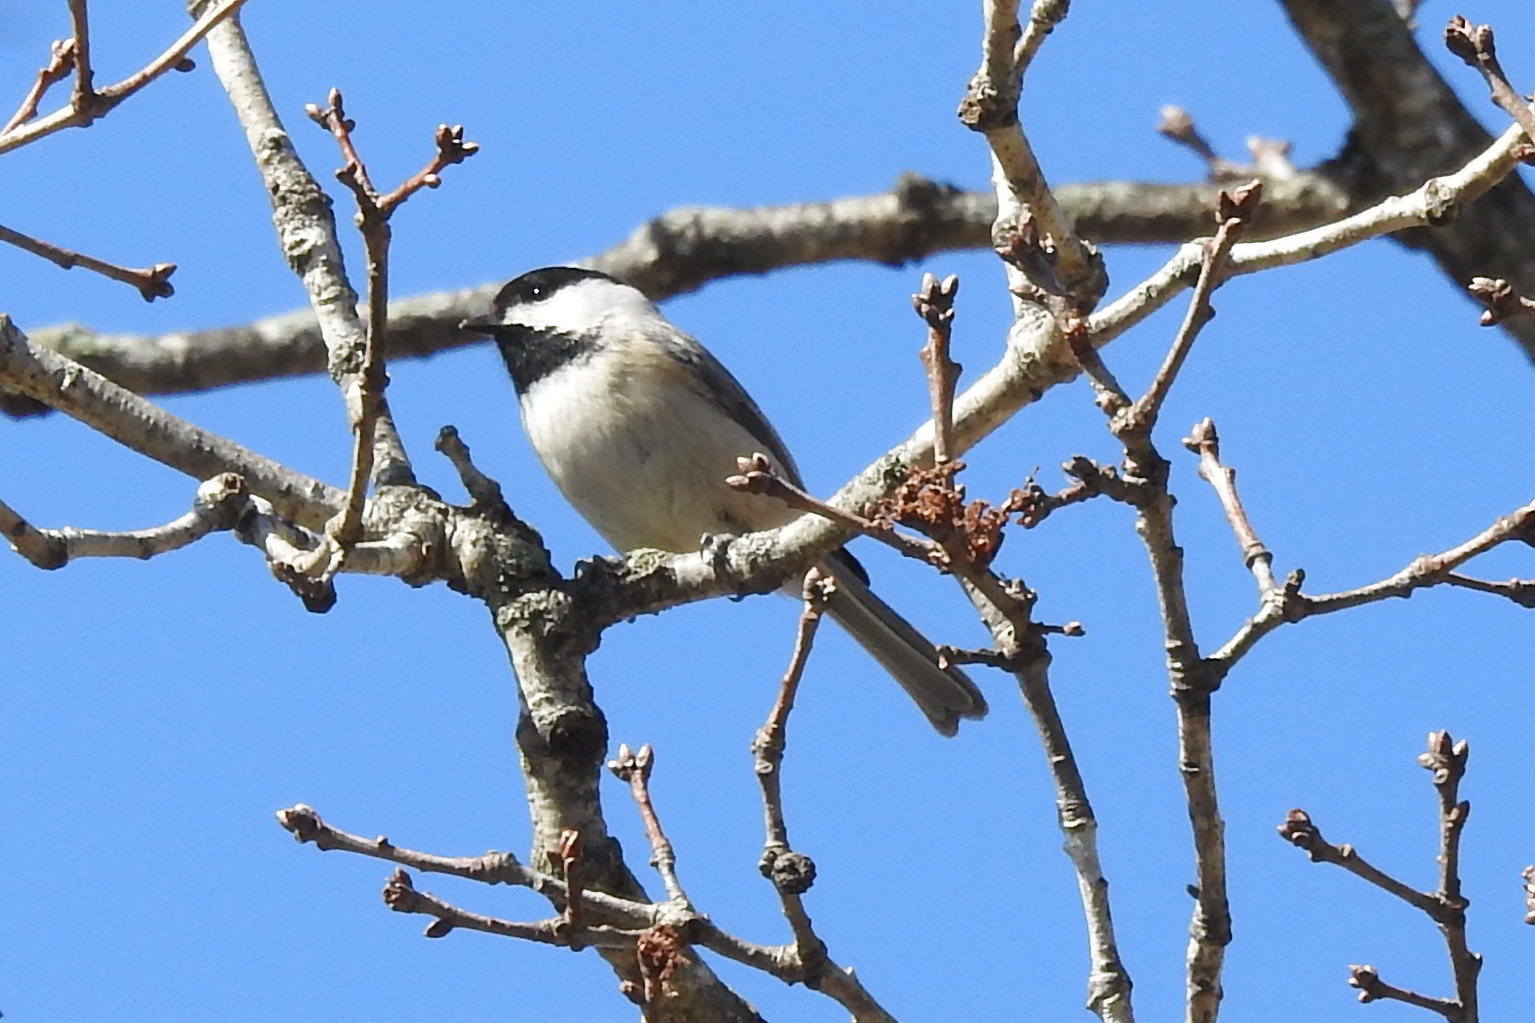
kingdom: Animalia
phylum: Chordata
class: Aves
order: Passeriformes
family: Paridae
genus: Poecile
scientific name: Poecile carolinensis
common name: Carolina chickadee
